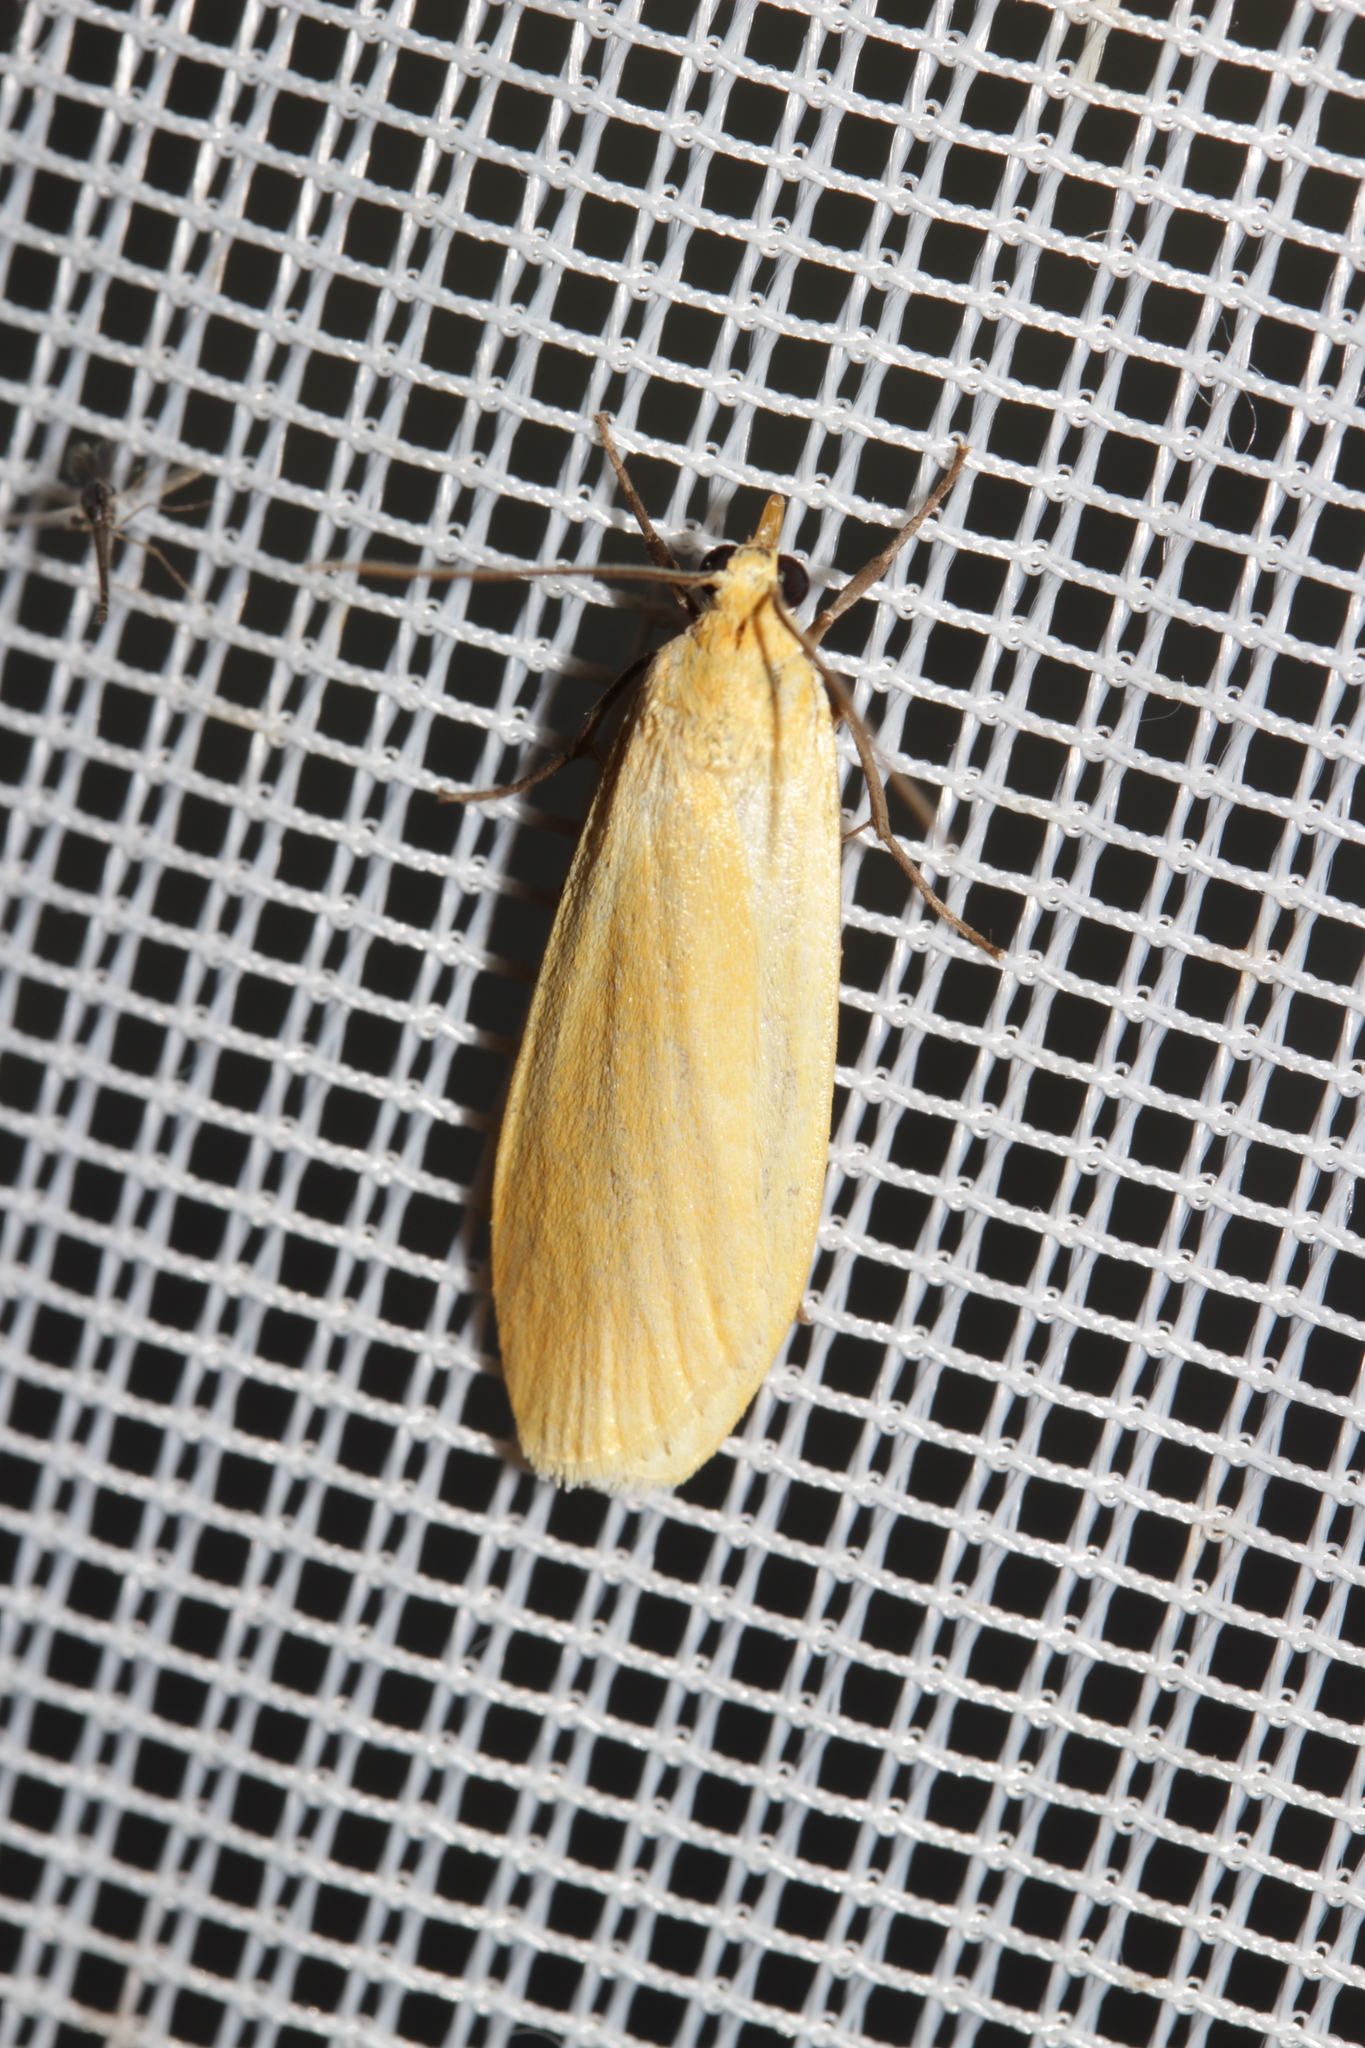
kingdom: Animalia
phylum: Arthropoda
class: Insecta
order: Lepidoptera
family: Erebidae
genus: Wittia
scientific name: Wittia sororcula
